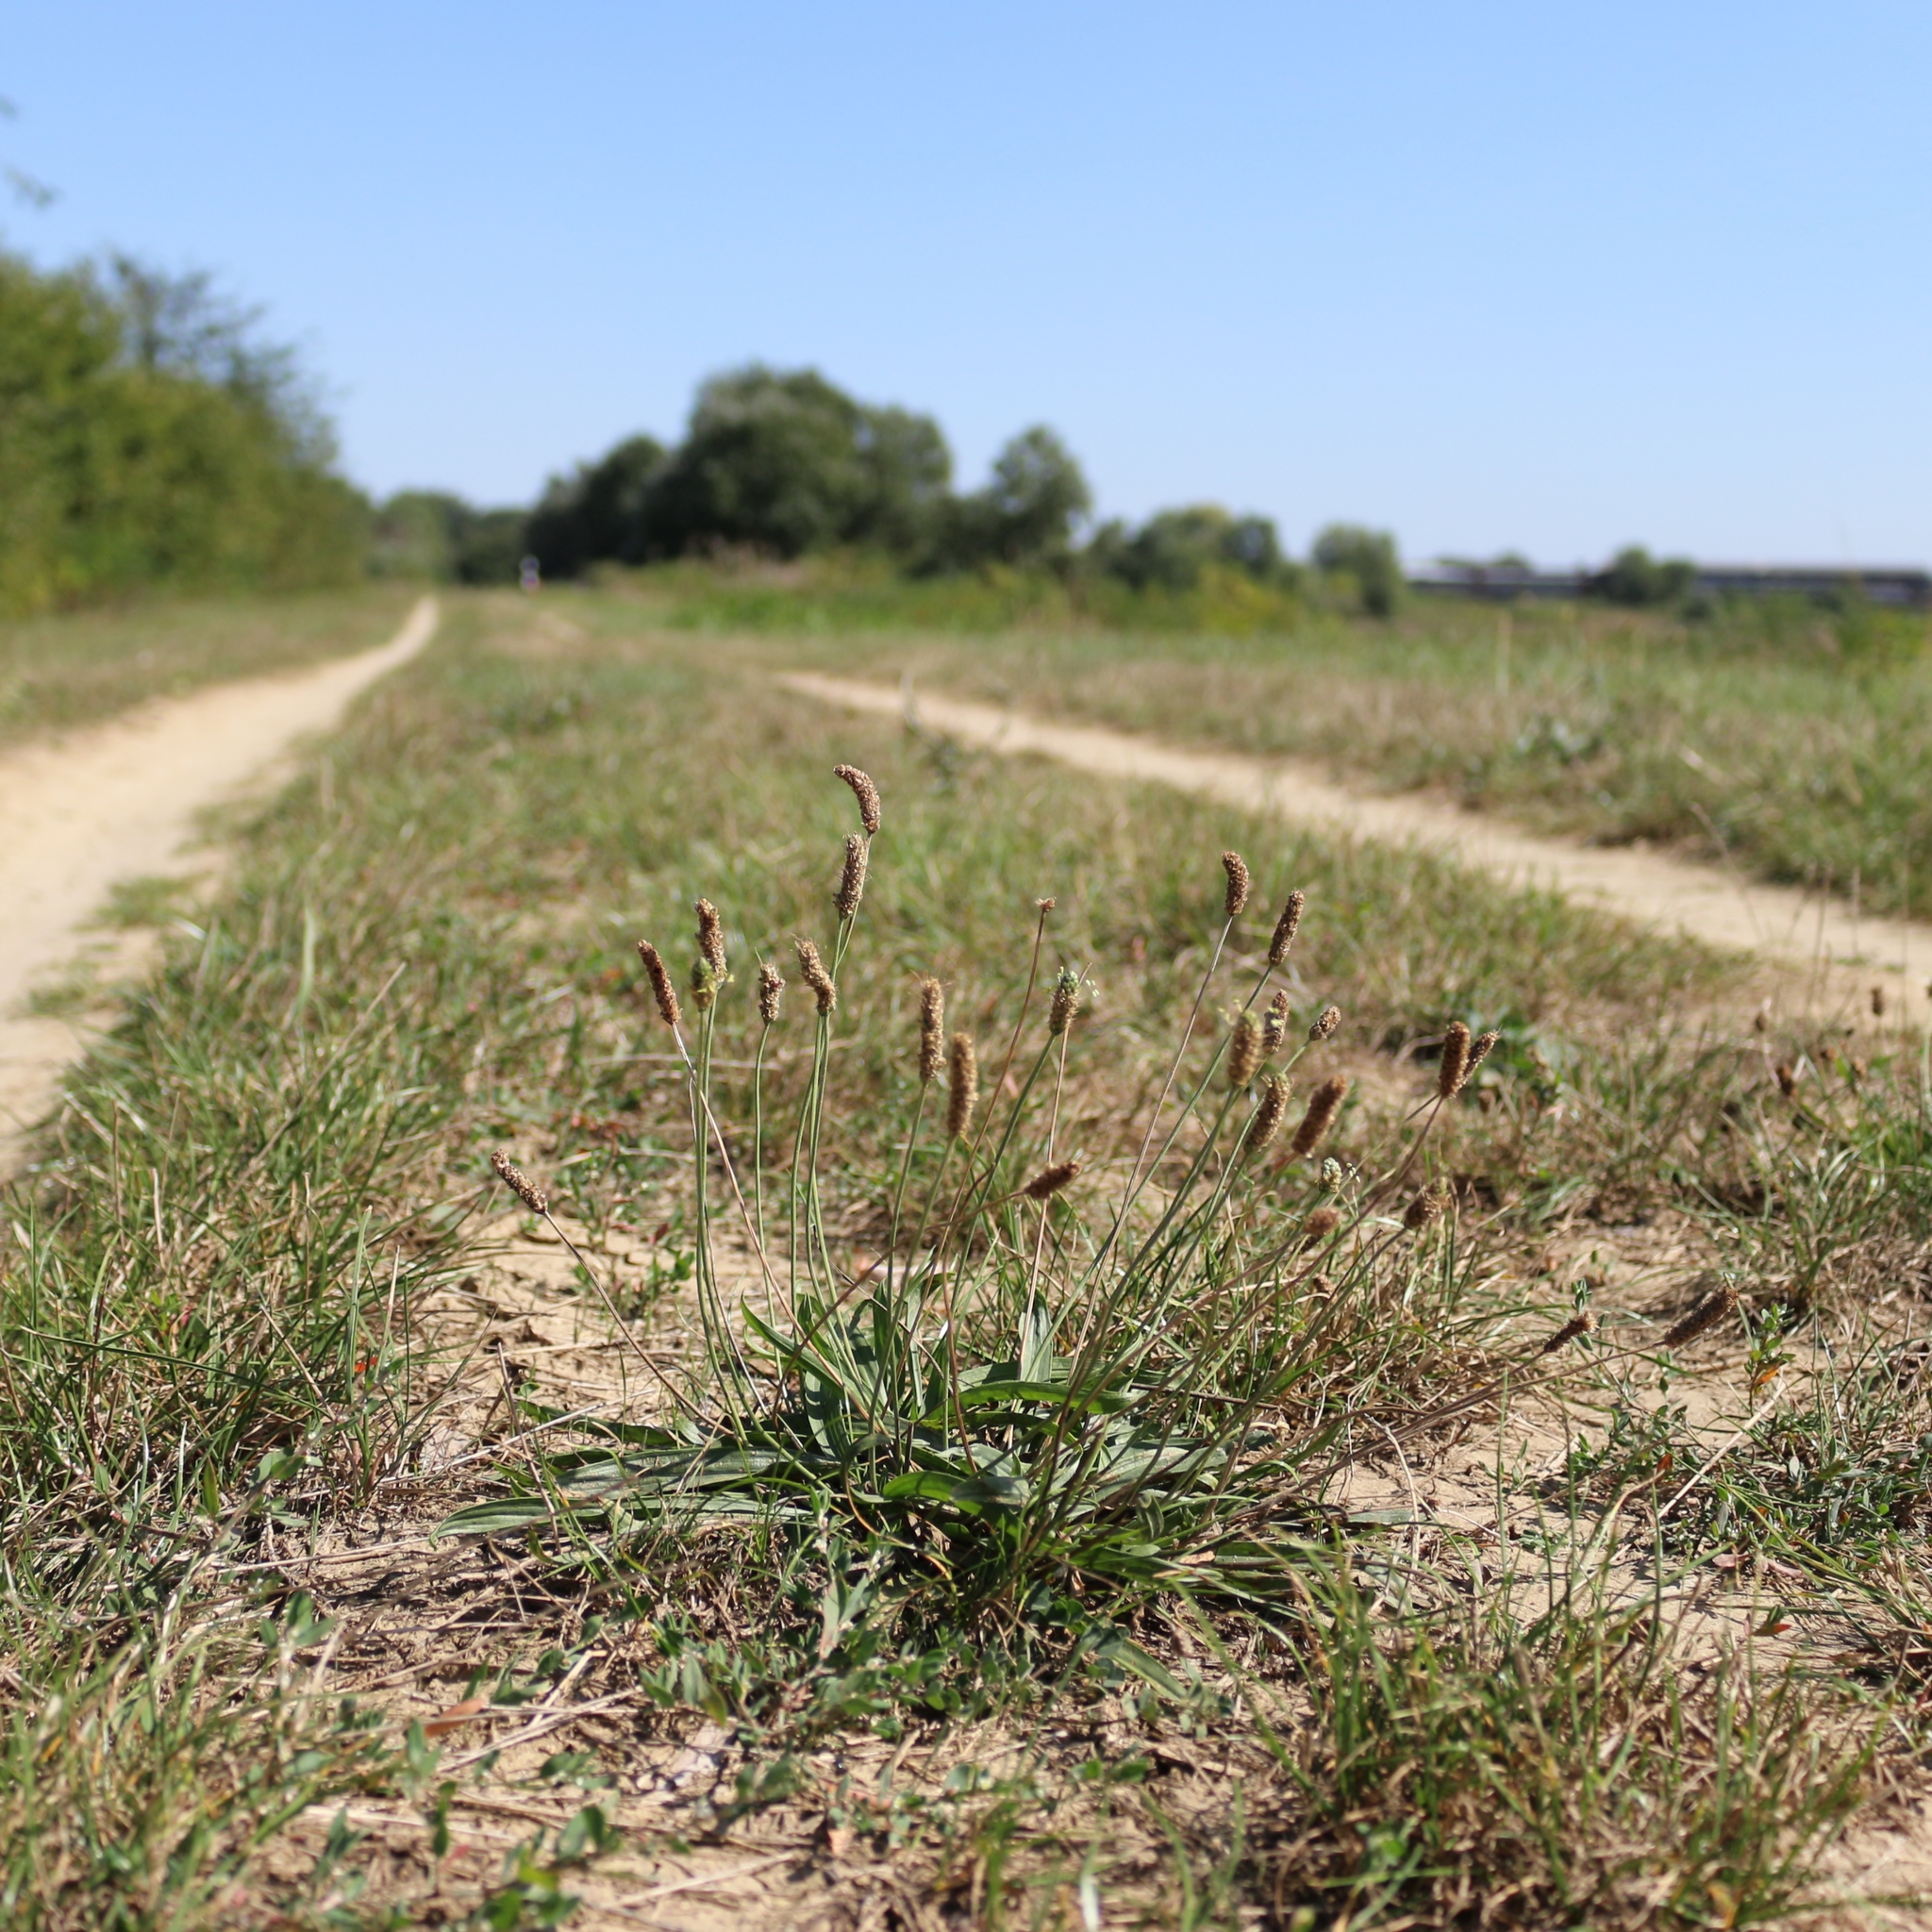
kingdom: Plantae
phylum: Tracheophyta
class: Magnoliopsida
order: Lamiales
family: Plantaginaceae
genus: Plantago
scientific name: Plantago lanceolata
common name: Ribwort plantain
